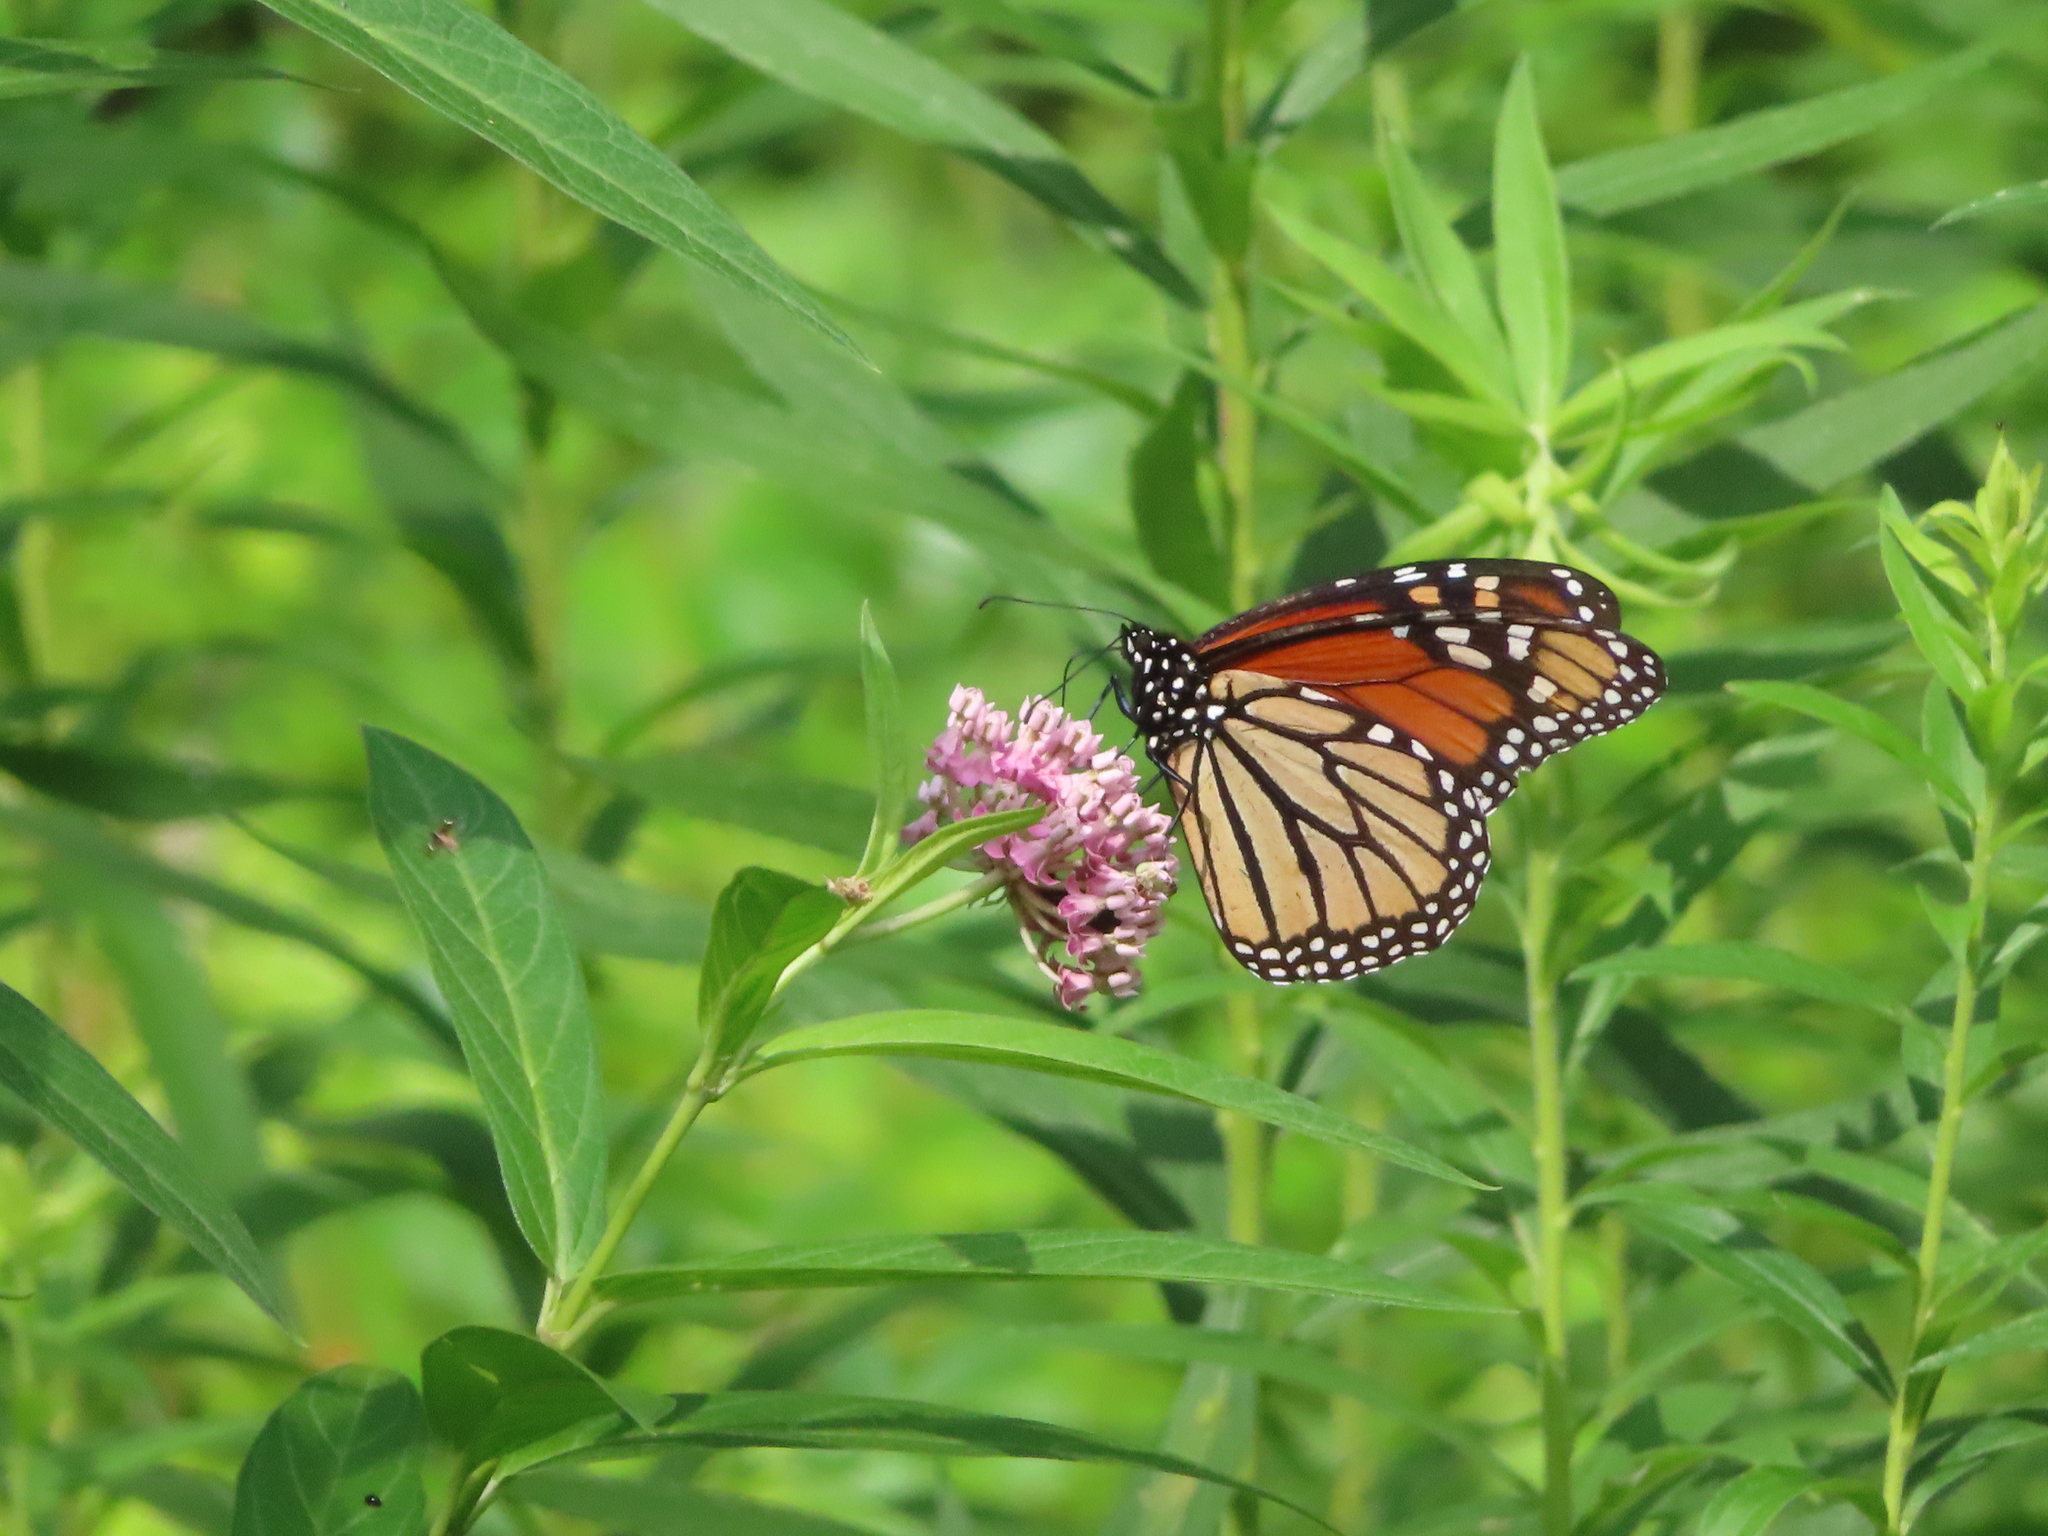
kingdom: Animalia
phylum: Arthropoda
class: Insecta
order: Lepidoptera
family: Nymphalidae
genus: Danaus
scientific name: Danaus plexippus
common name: Monarch
